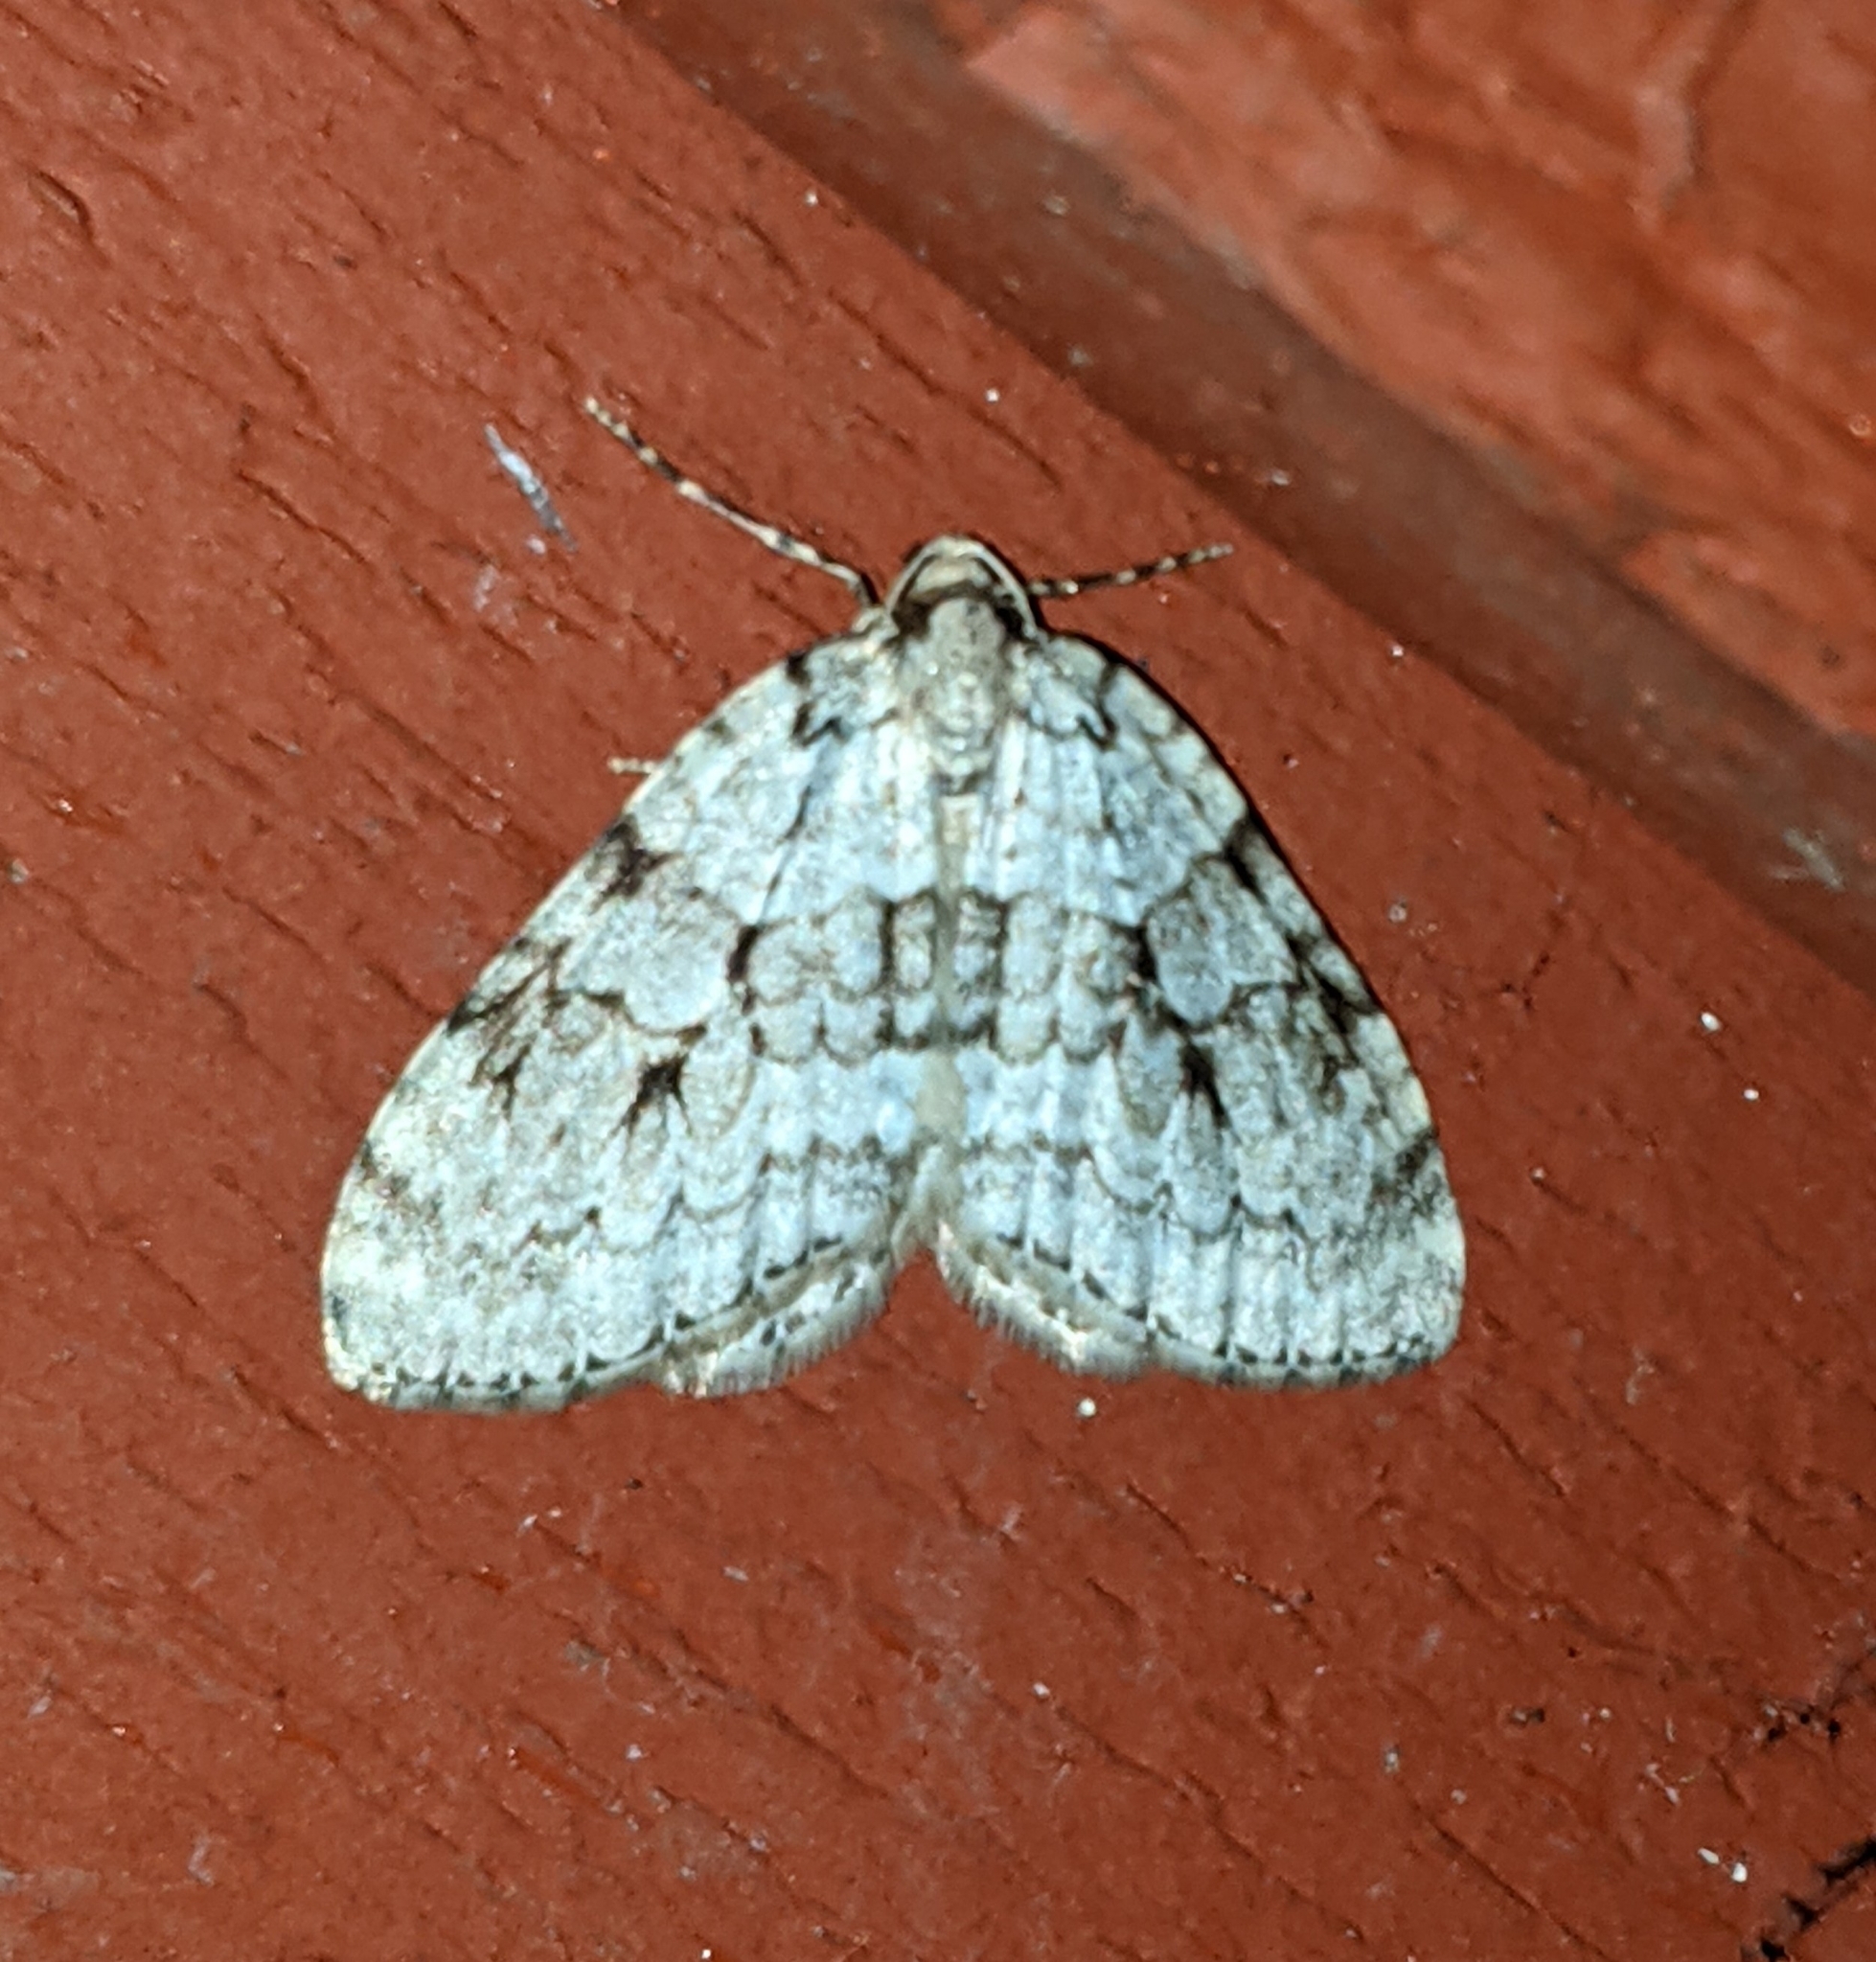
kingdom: Animalia
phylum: Arthropoda
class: Insecta
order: Lepidoptera
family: Geometridae
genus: Epirrita
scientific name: Epirrita autumnata
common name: Autumnal moth
